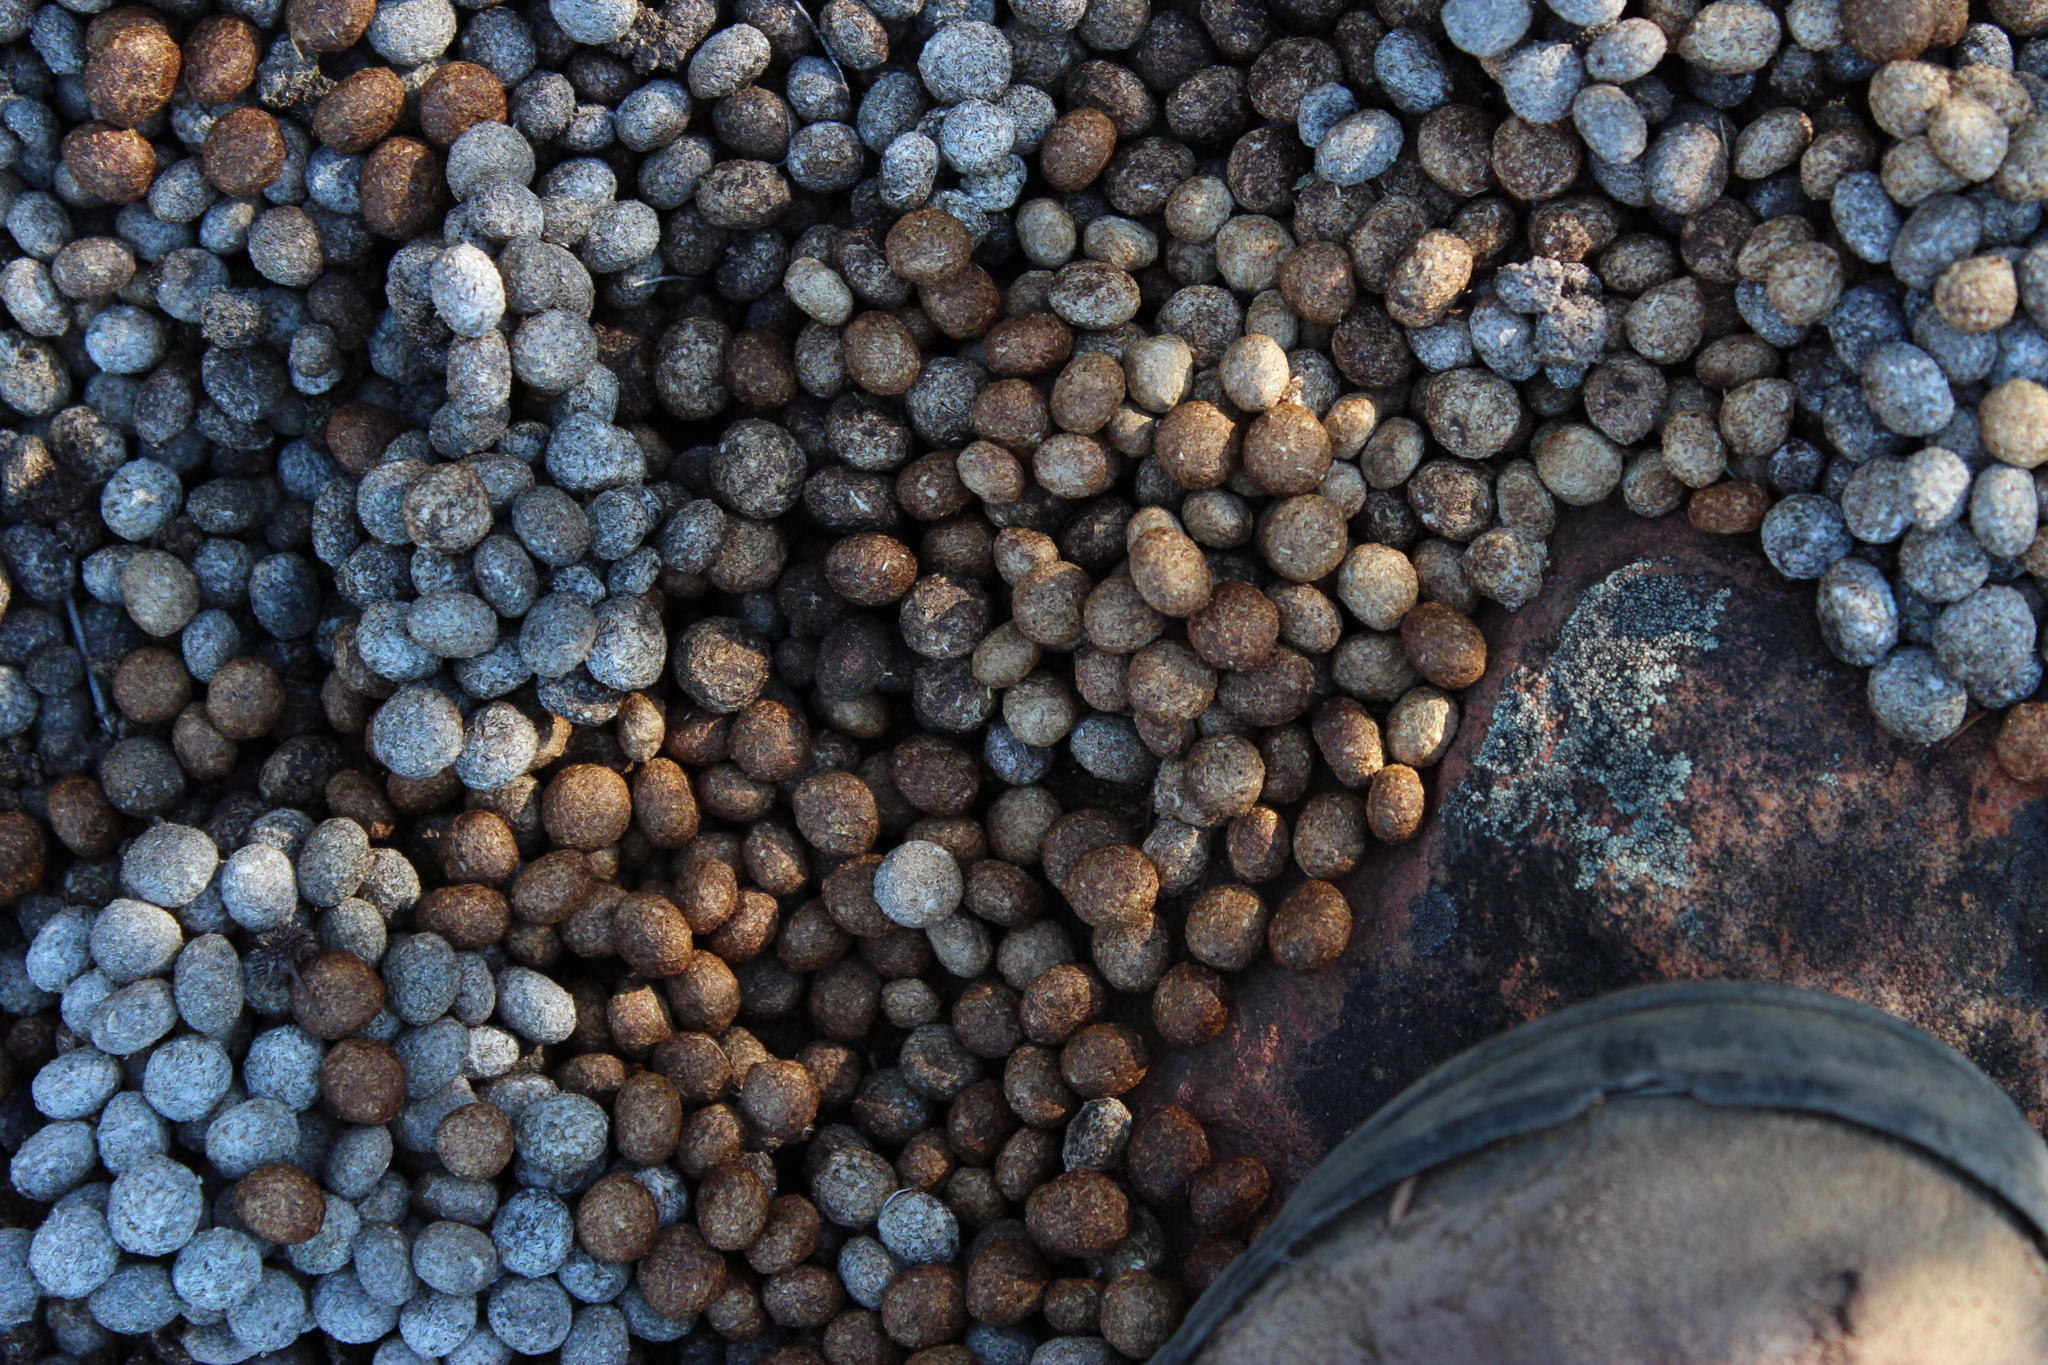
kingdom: Animalia
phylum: Chordata
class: Mammalia
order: Lagomorpha
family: Leporidae
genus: Pronolagus
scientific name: Pronolagus saundersiae
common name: Hewitt's red rock hare
